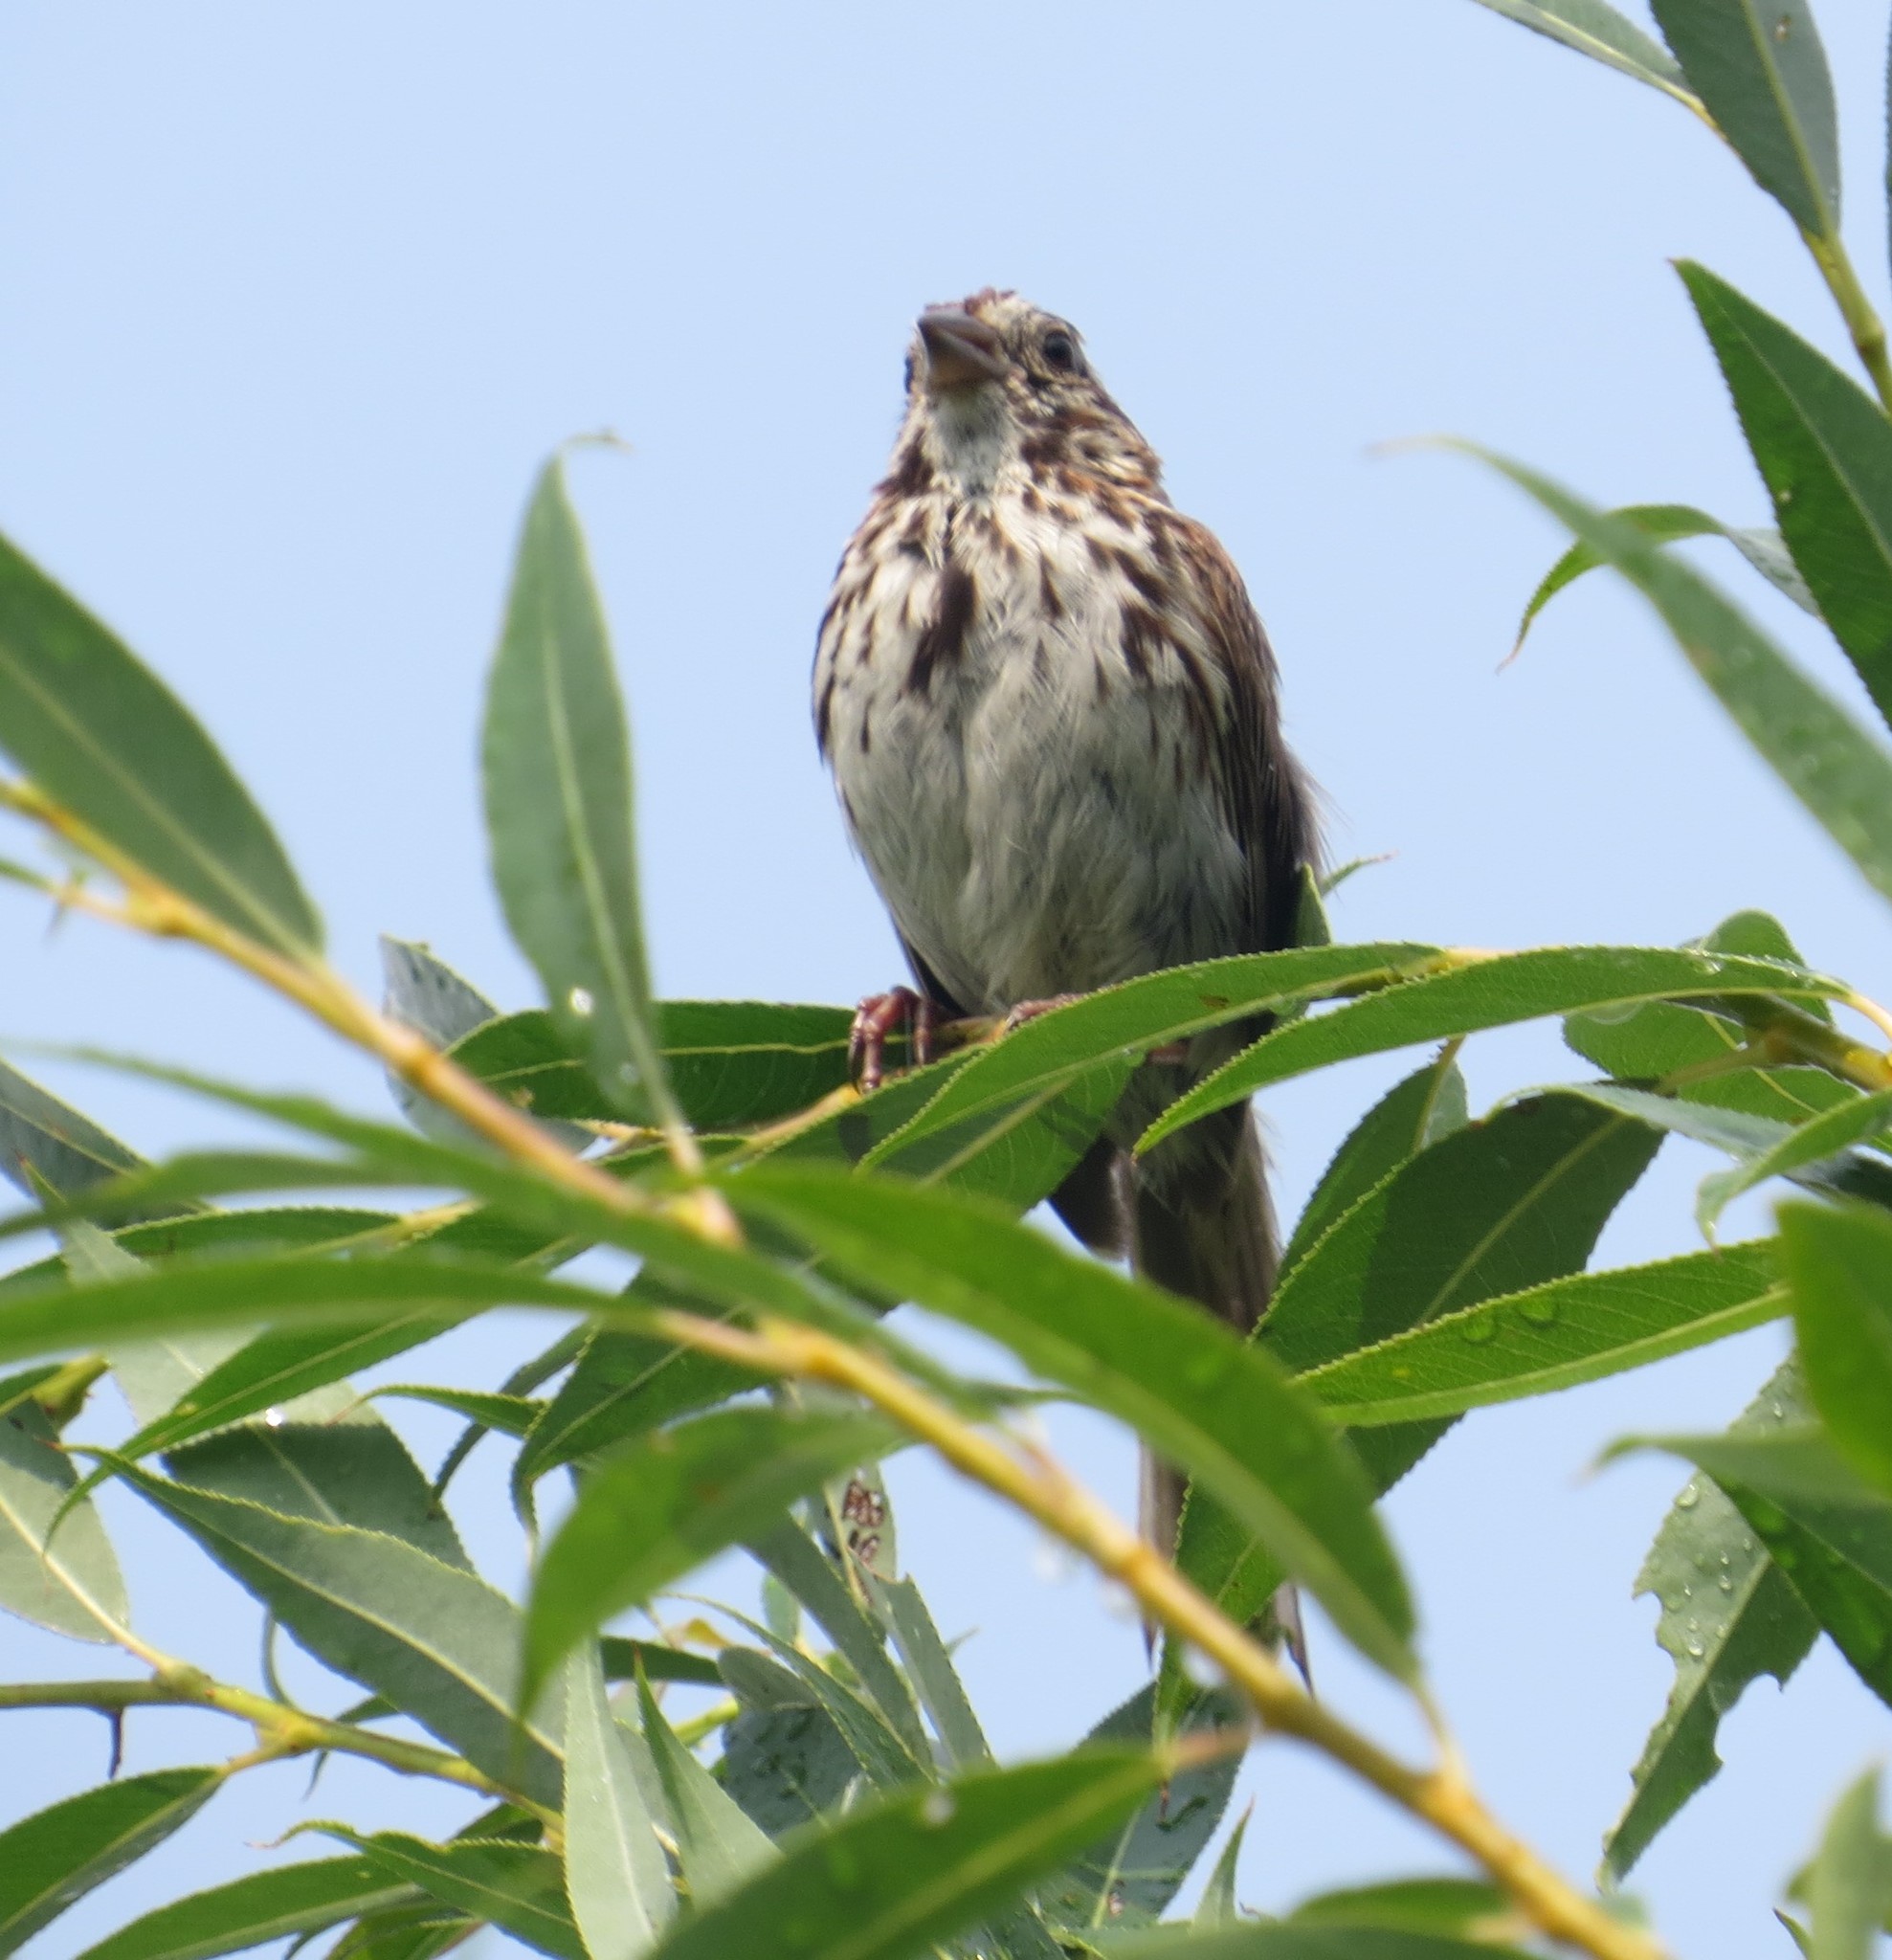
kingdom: Animalia
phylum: Chordata
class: Aves
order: Passeriformes
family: Passerellidae
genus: Melospiza
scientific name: Melospiza melodia
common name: Song sparrow
